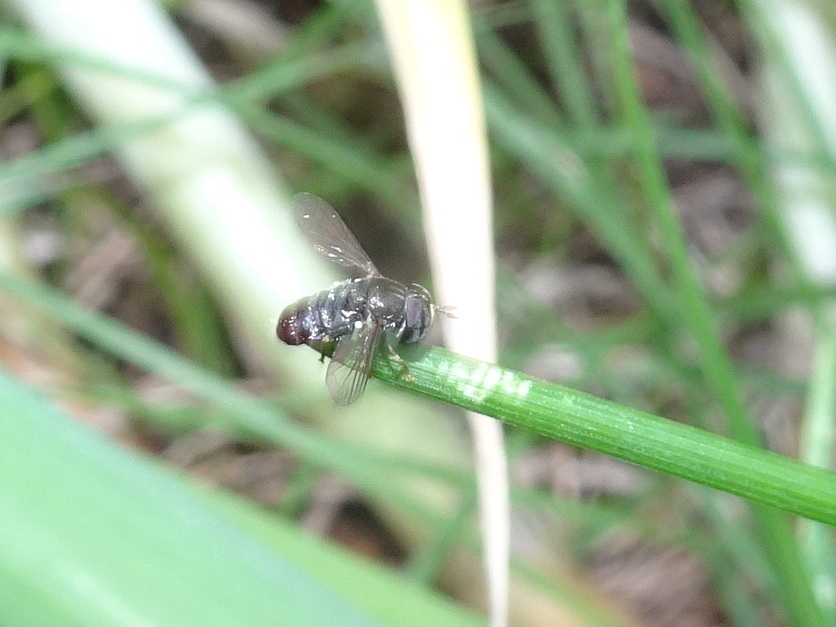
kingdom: Animalia
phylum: Arthropoda
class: Insecta
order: Diptera
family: Syrphidae
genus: Paragus
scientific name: Paragus
